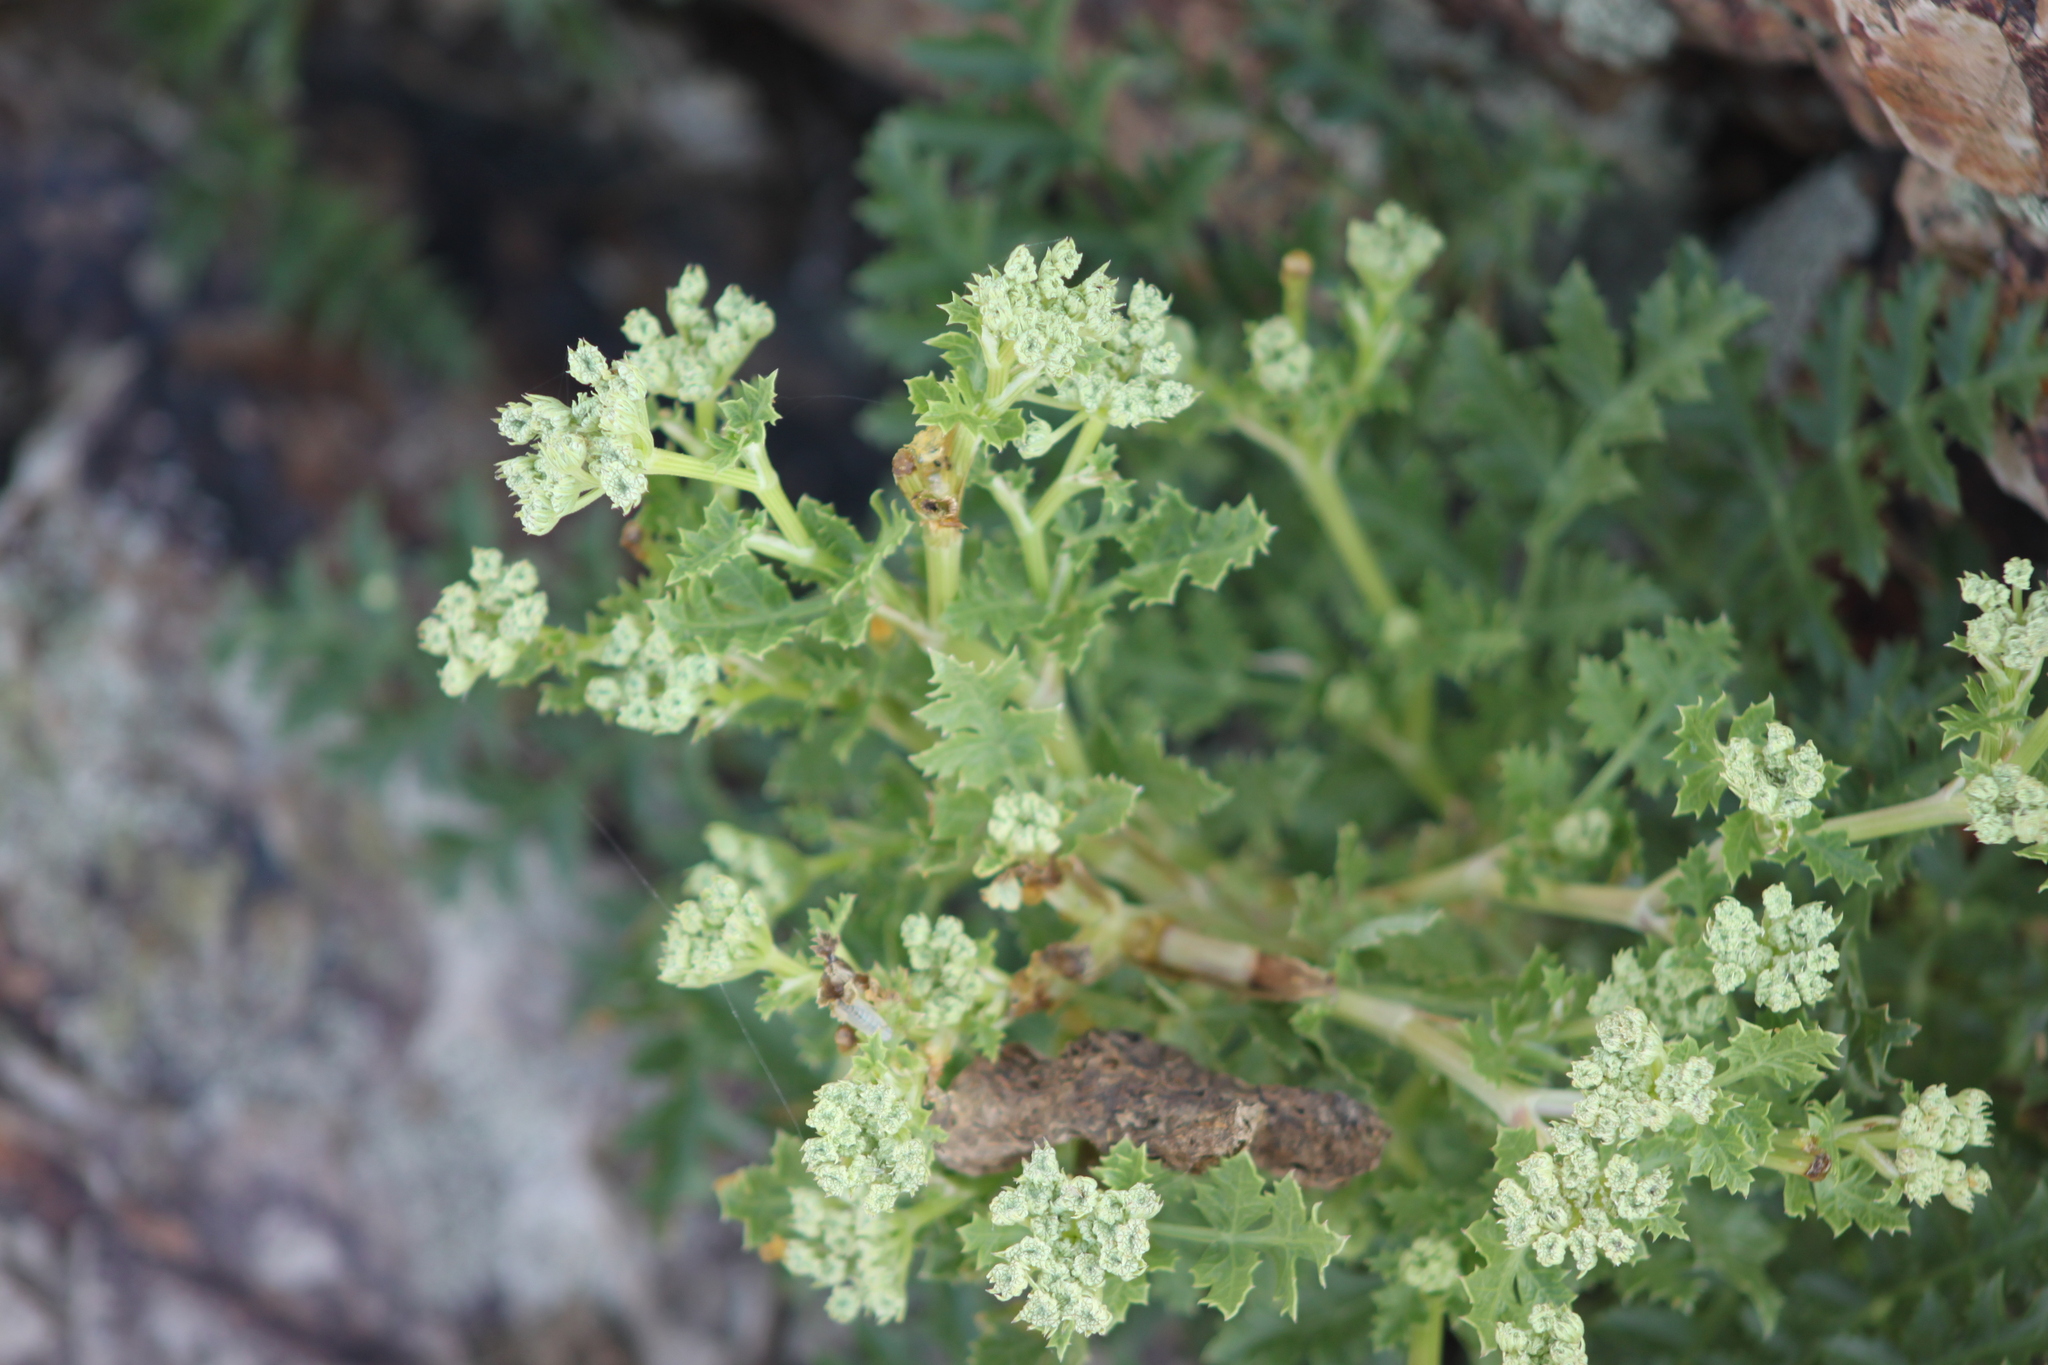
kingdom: Plantae
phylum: Tracheophyta
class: Magnoliopsida
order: Apiales
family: Apiaceae
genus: Seseli
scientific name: Seseli buchtormense
